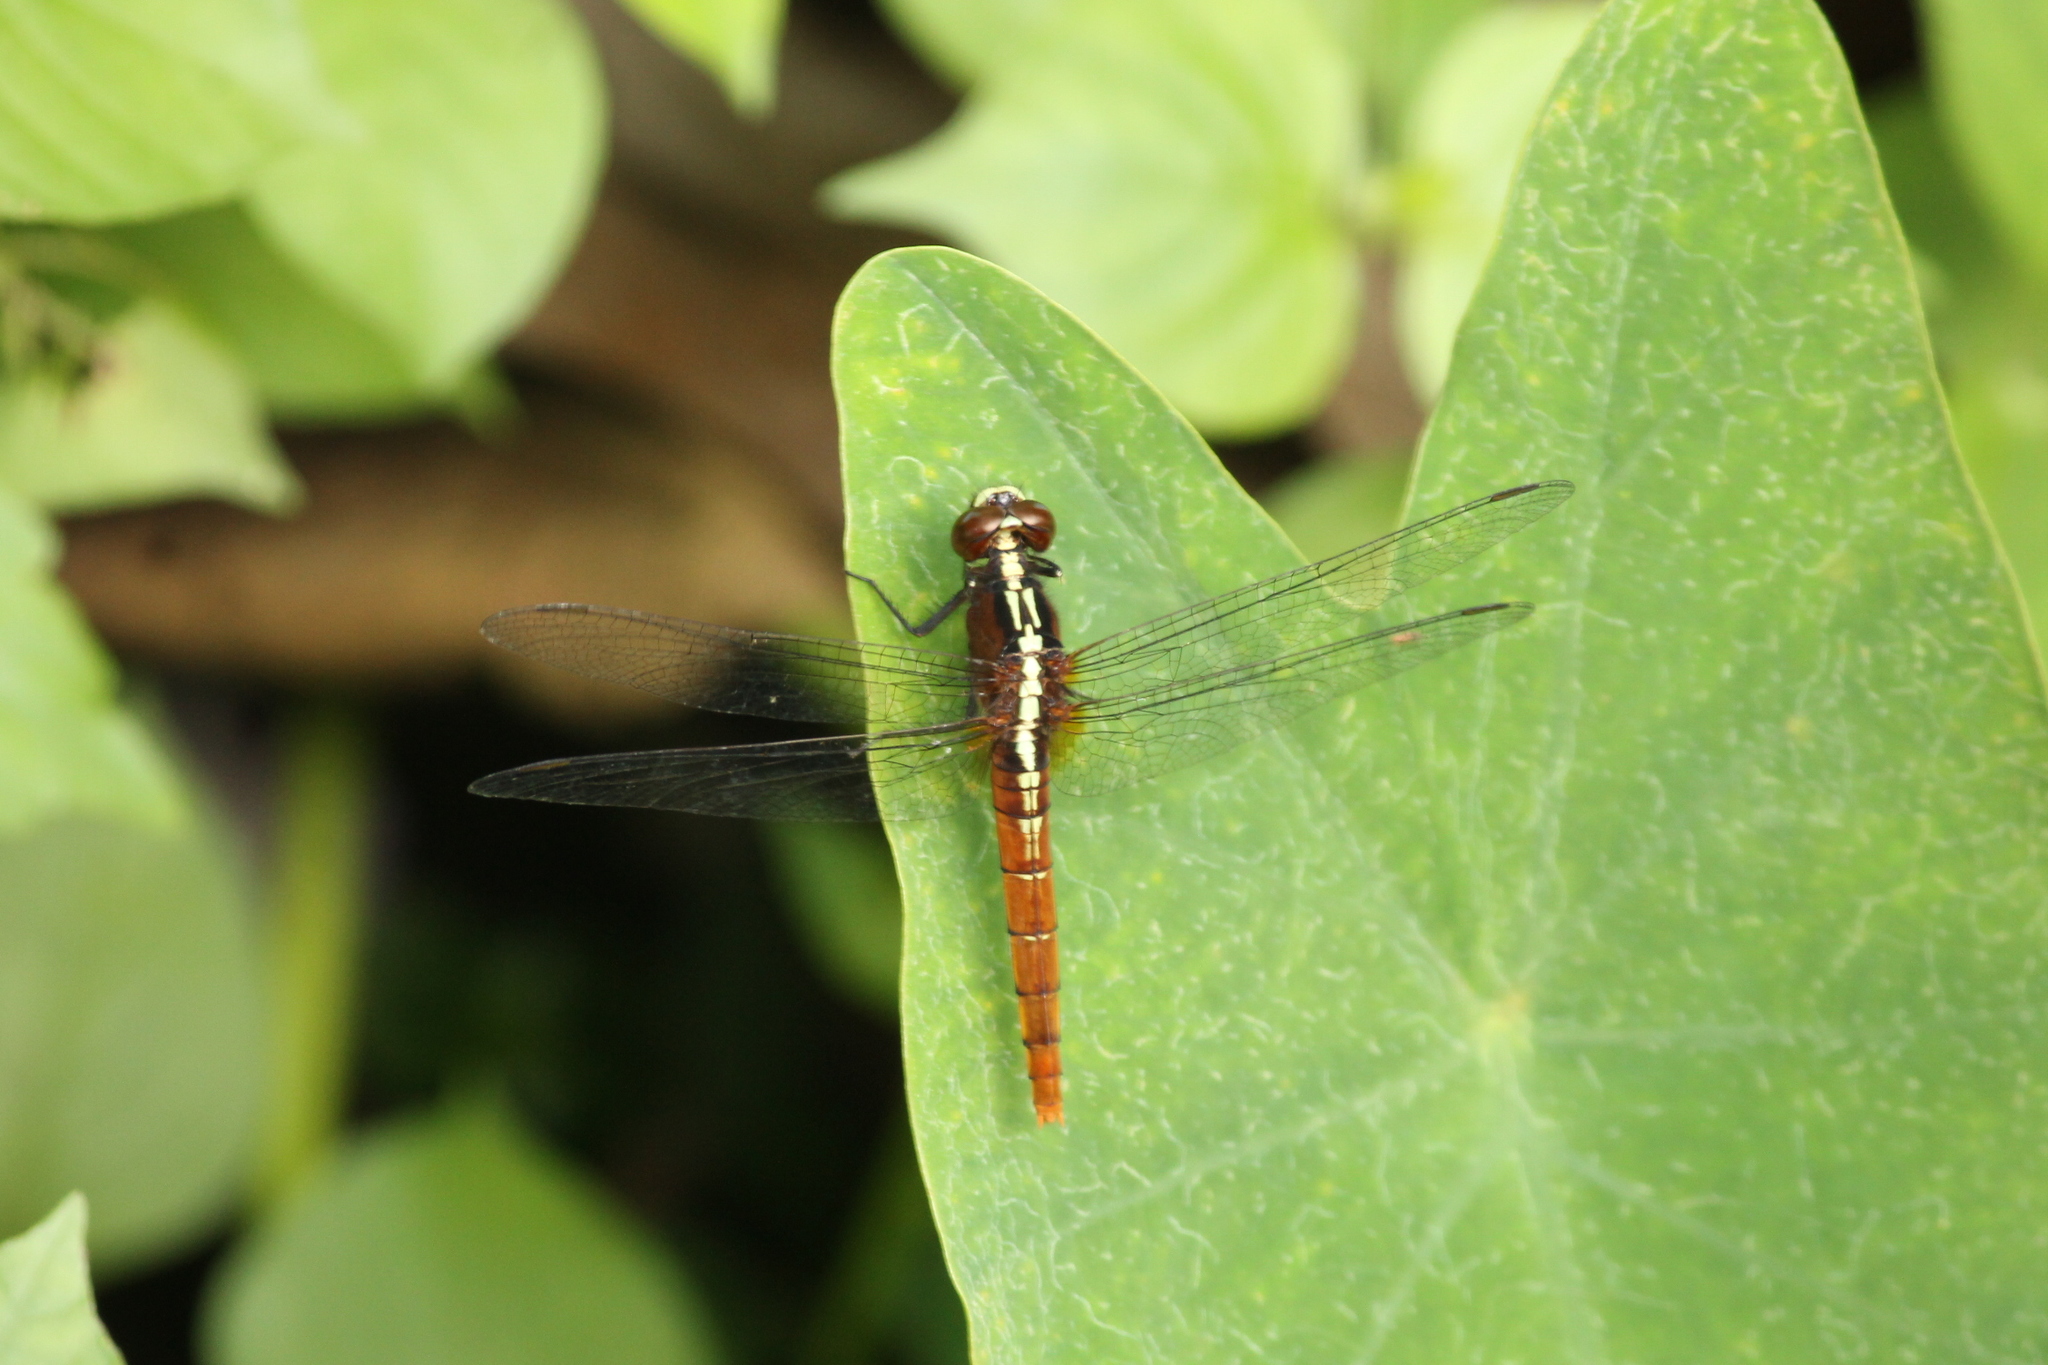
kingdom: Animalia
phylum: Arthropoda
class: Insecta
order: Odonata
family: Libellulidae
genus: Rhodothemis
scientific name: Rhodothemis rufa
